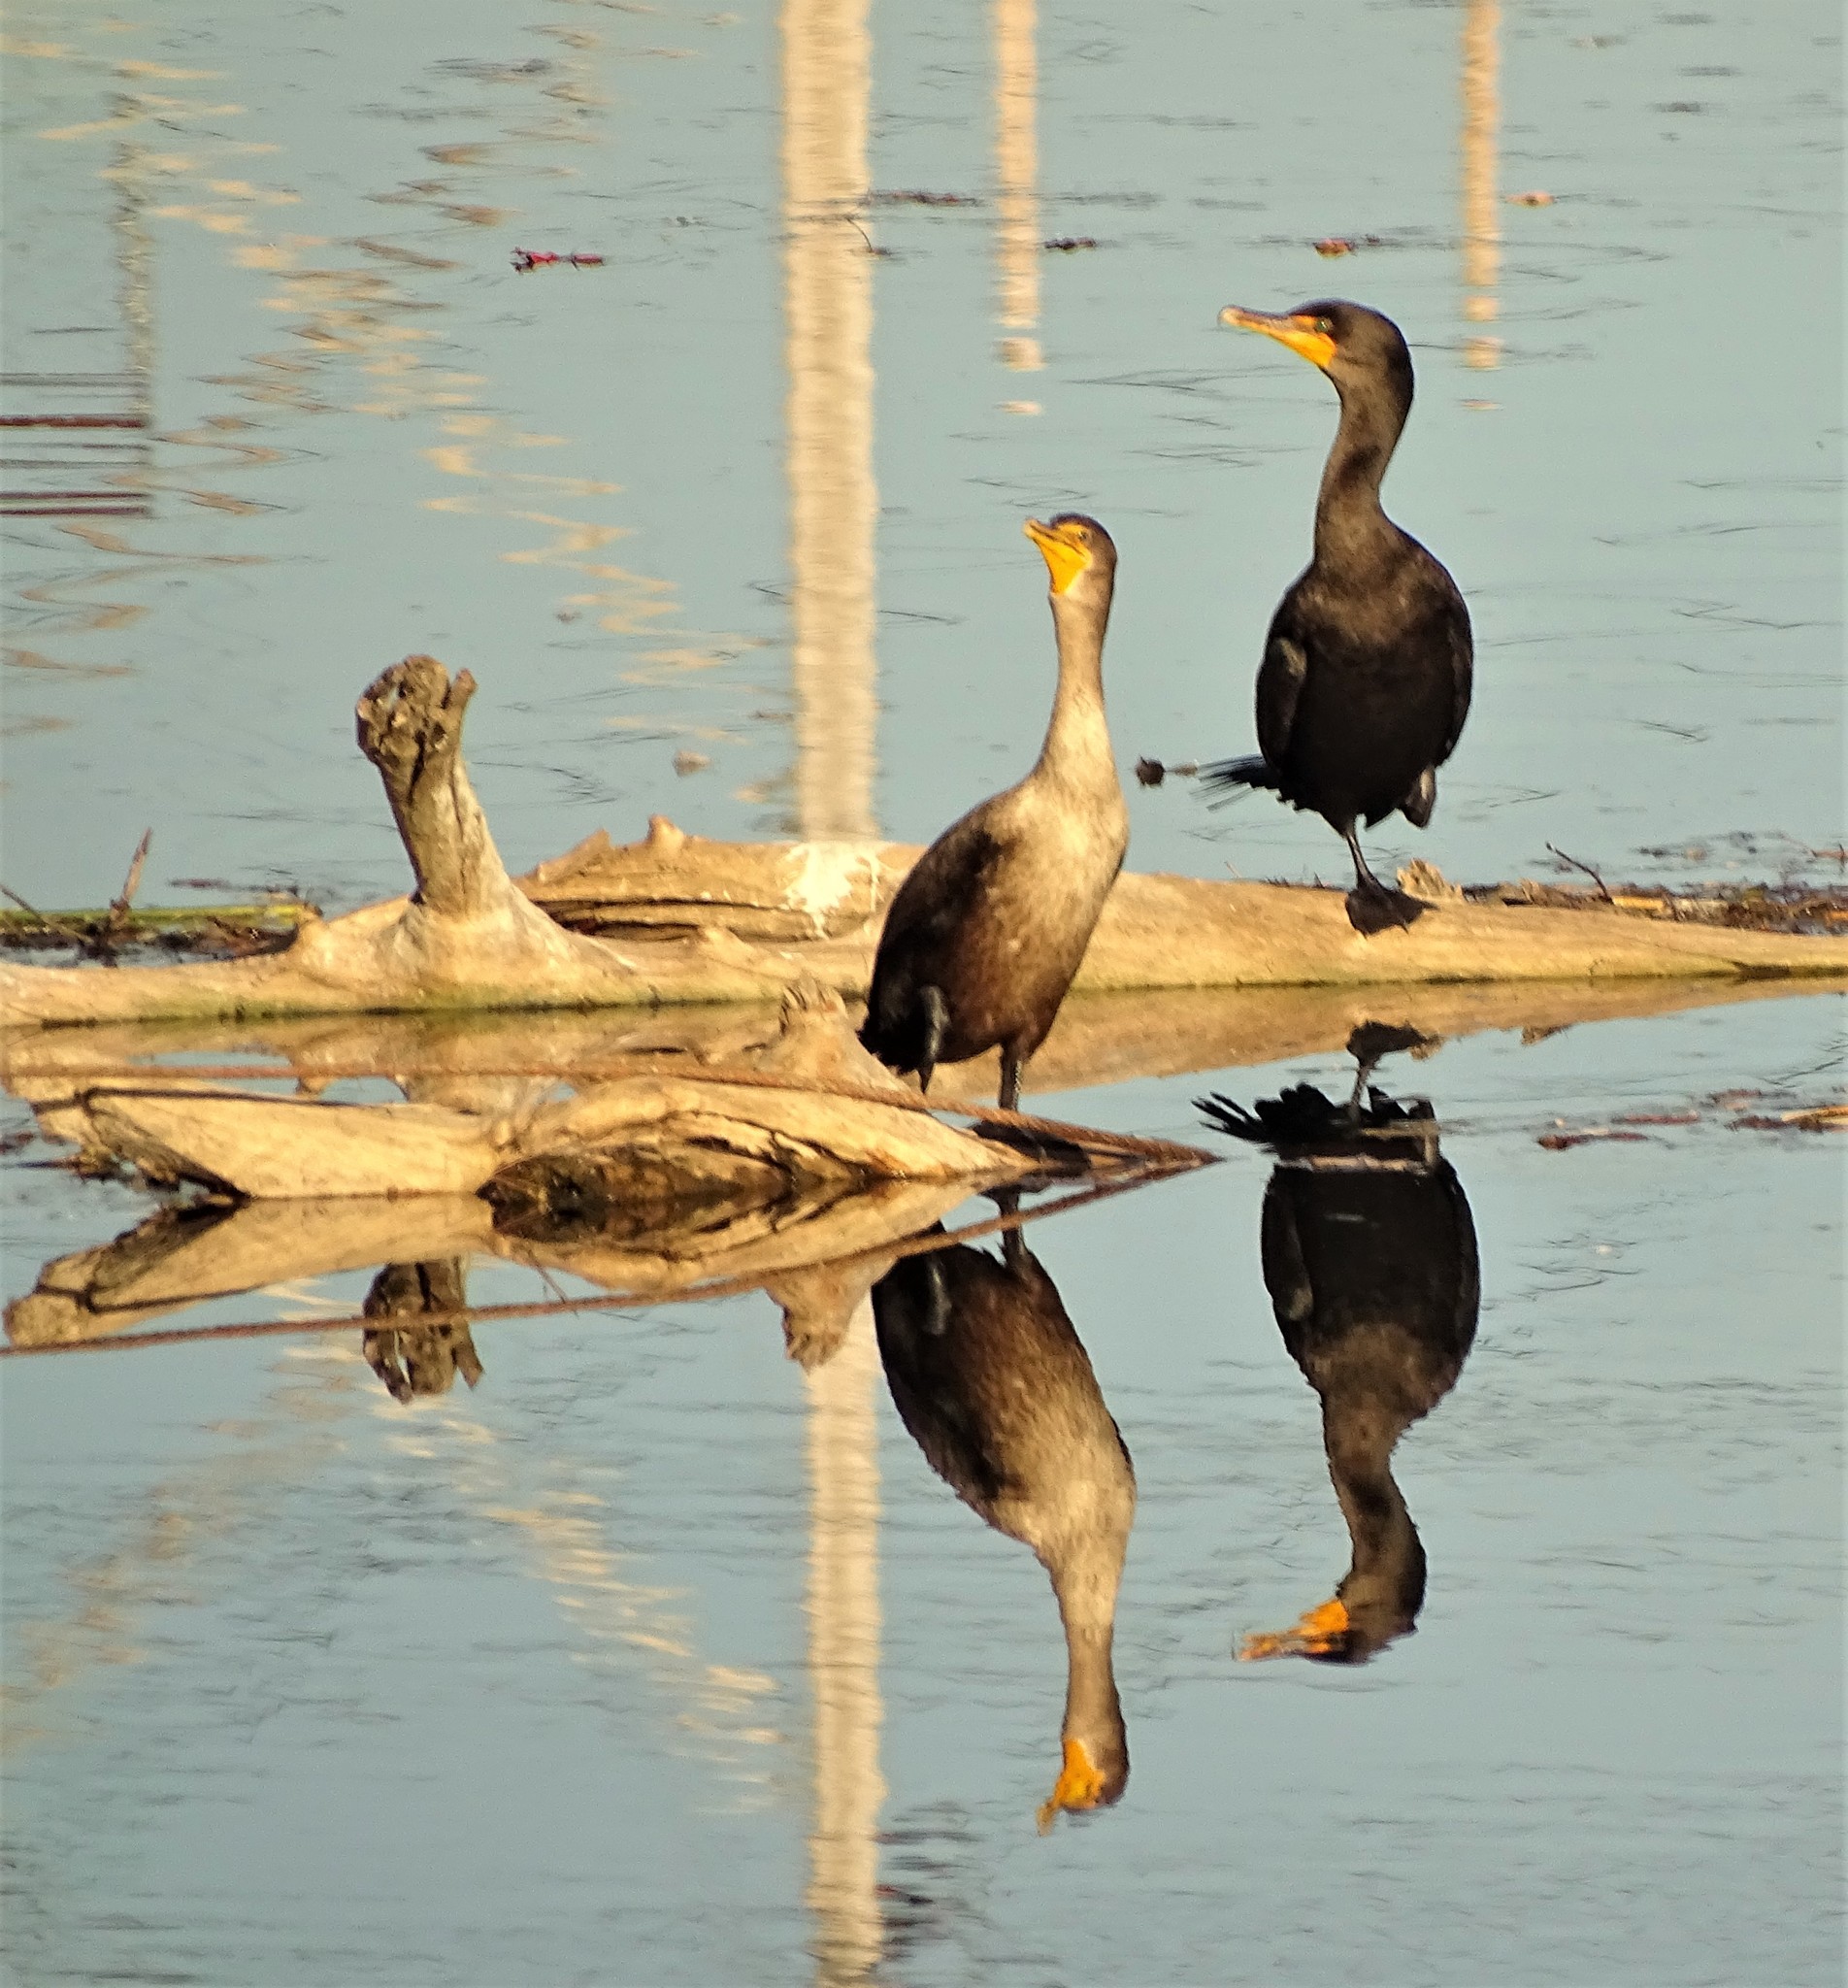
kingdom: Animalia
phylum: Chordata
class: Aves
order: Suliformes
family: Phalacrocoracidae
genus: Phalacrocorax
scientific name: Phalacrocorax auritus
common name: Double-crested cormorant
